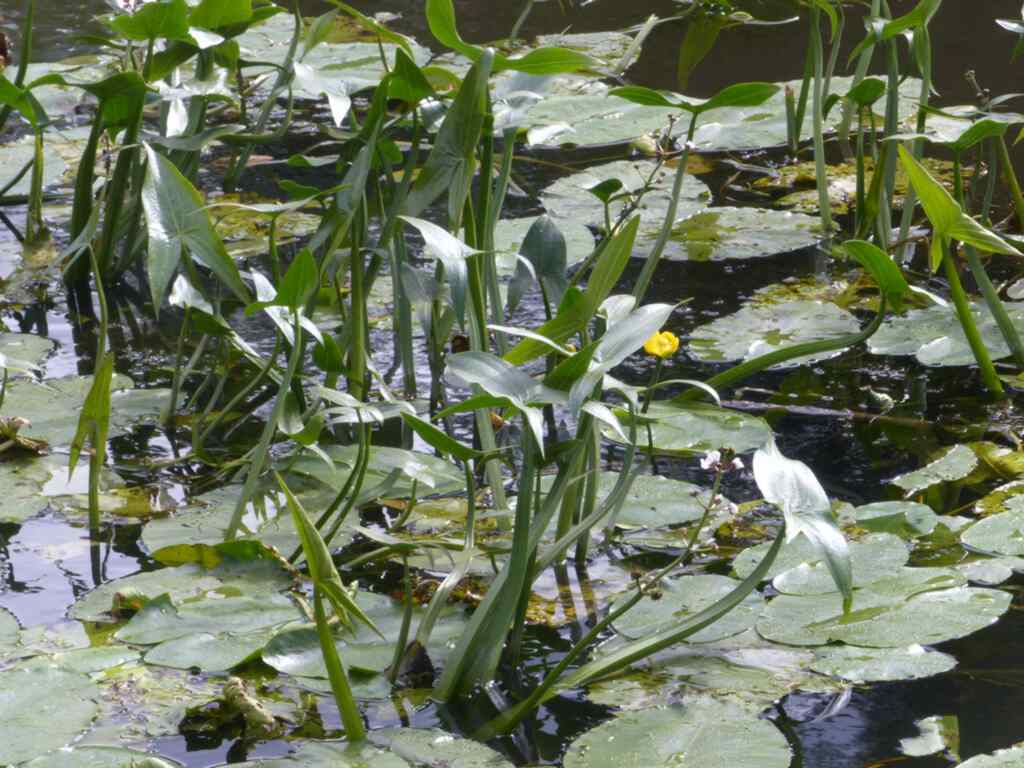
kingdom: Plantae
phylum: Tracheophyta
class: Liliopsida
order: Alismatales
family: Alismataceae
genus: Sagittaria
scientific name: Sagittaria sagittifolia
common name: Arrowhead
